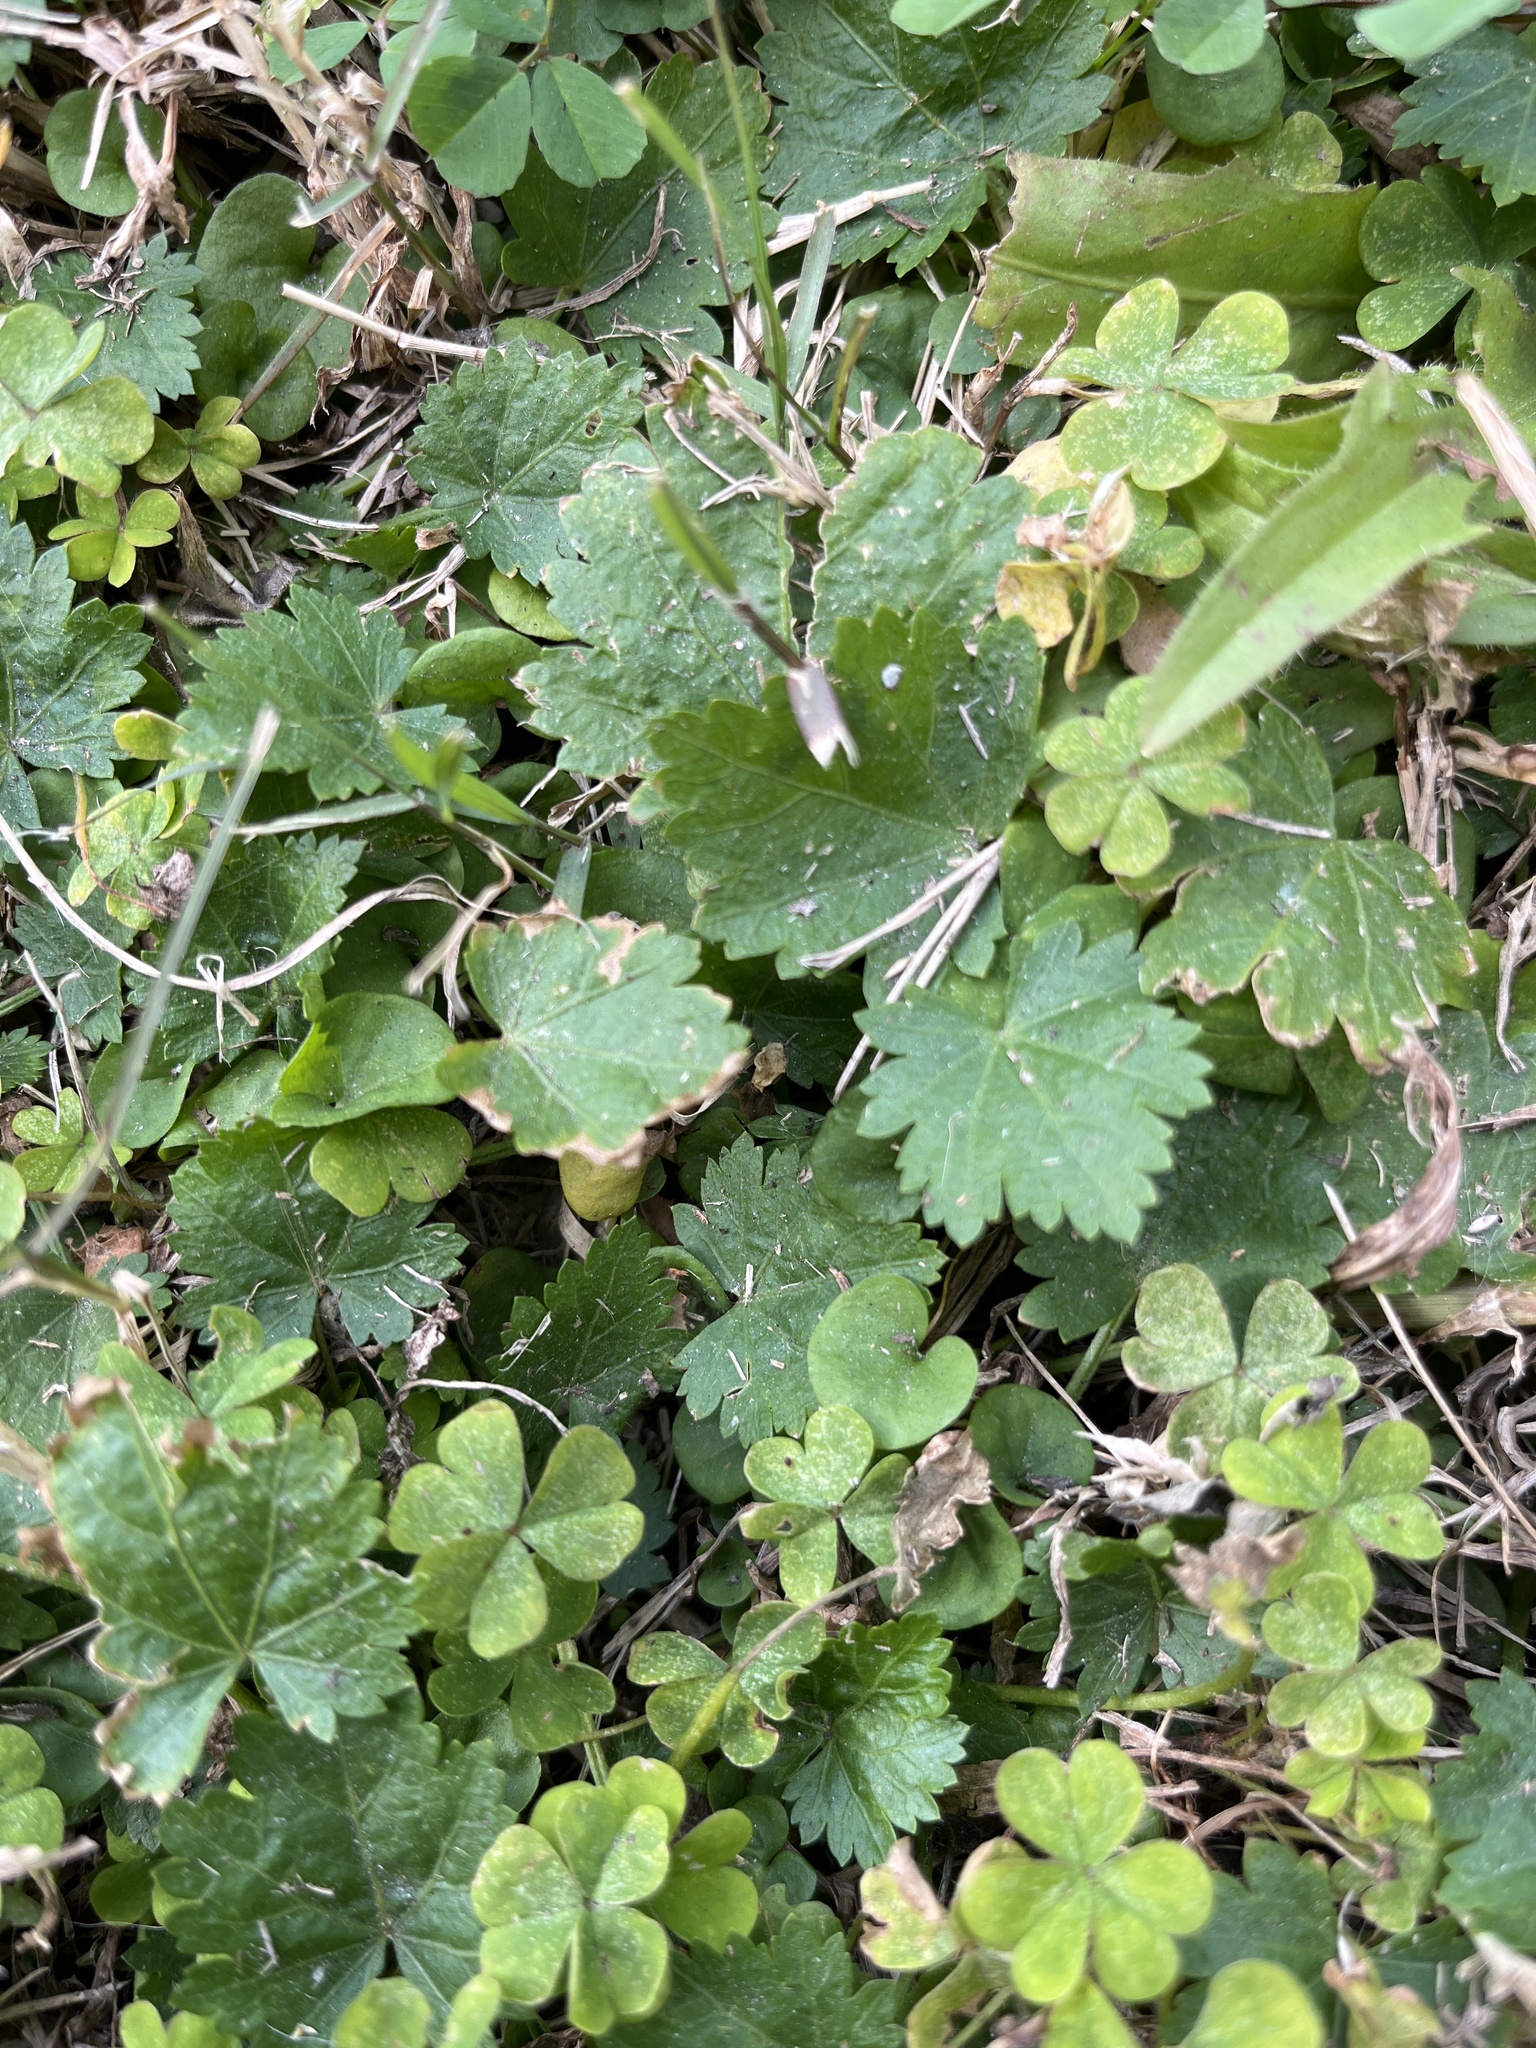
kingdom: Plantae
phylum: Tracheophyta
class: Magnoliopsida
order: Malvales
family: Malvaceae
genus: Modiola
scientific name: Modiola caroliniana
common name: Carolina bristlemallow
